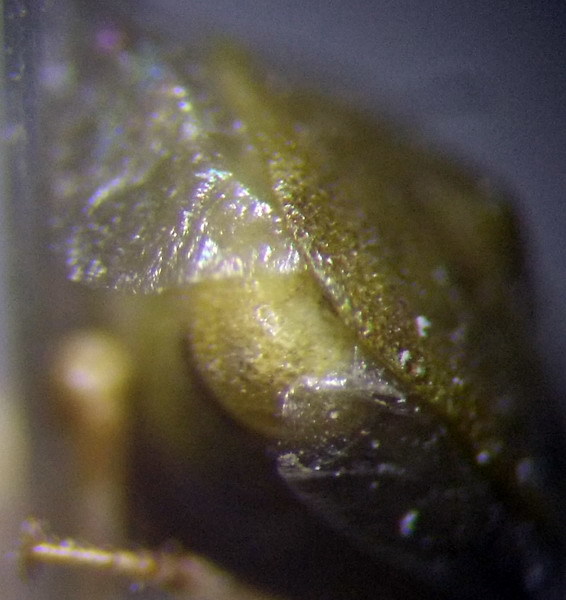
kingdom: Animalia
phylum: Arthropoda
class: Insecta
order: Hemiptera
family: Pentatomidae
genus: Tarisa
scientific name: Tarisa subspinosa
